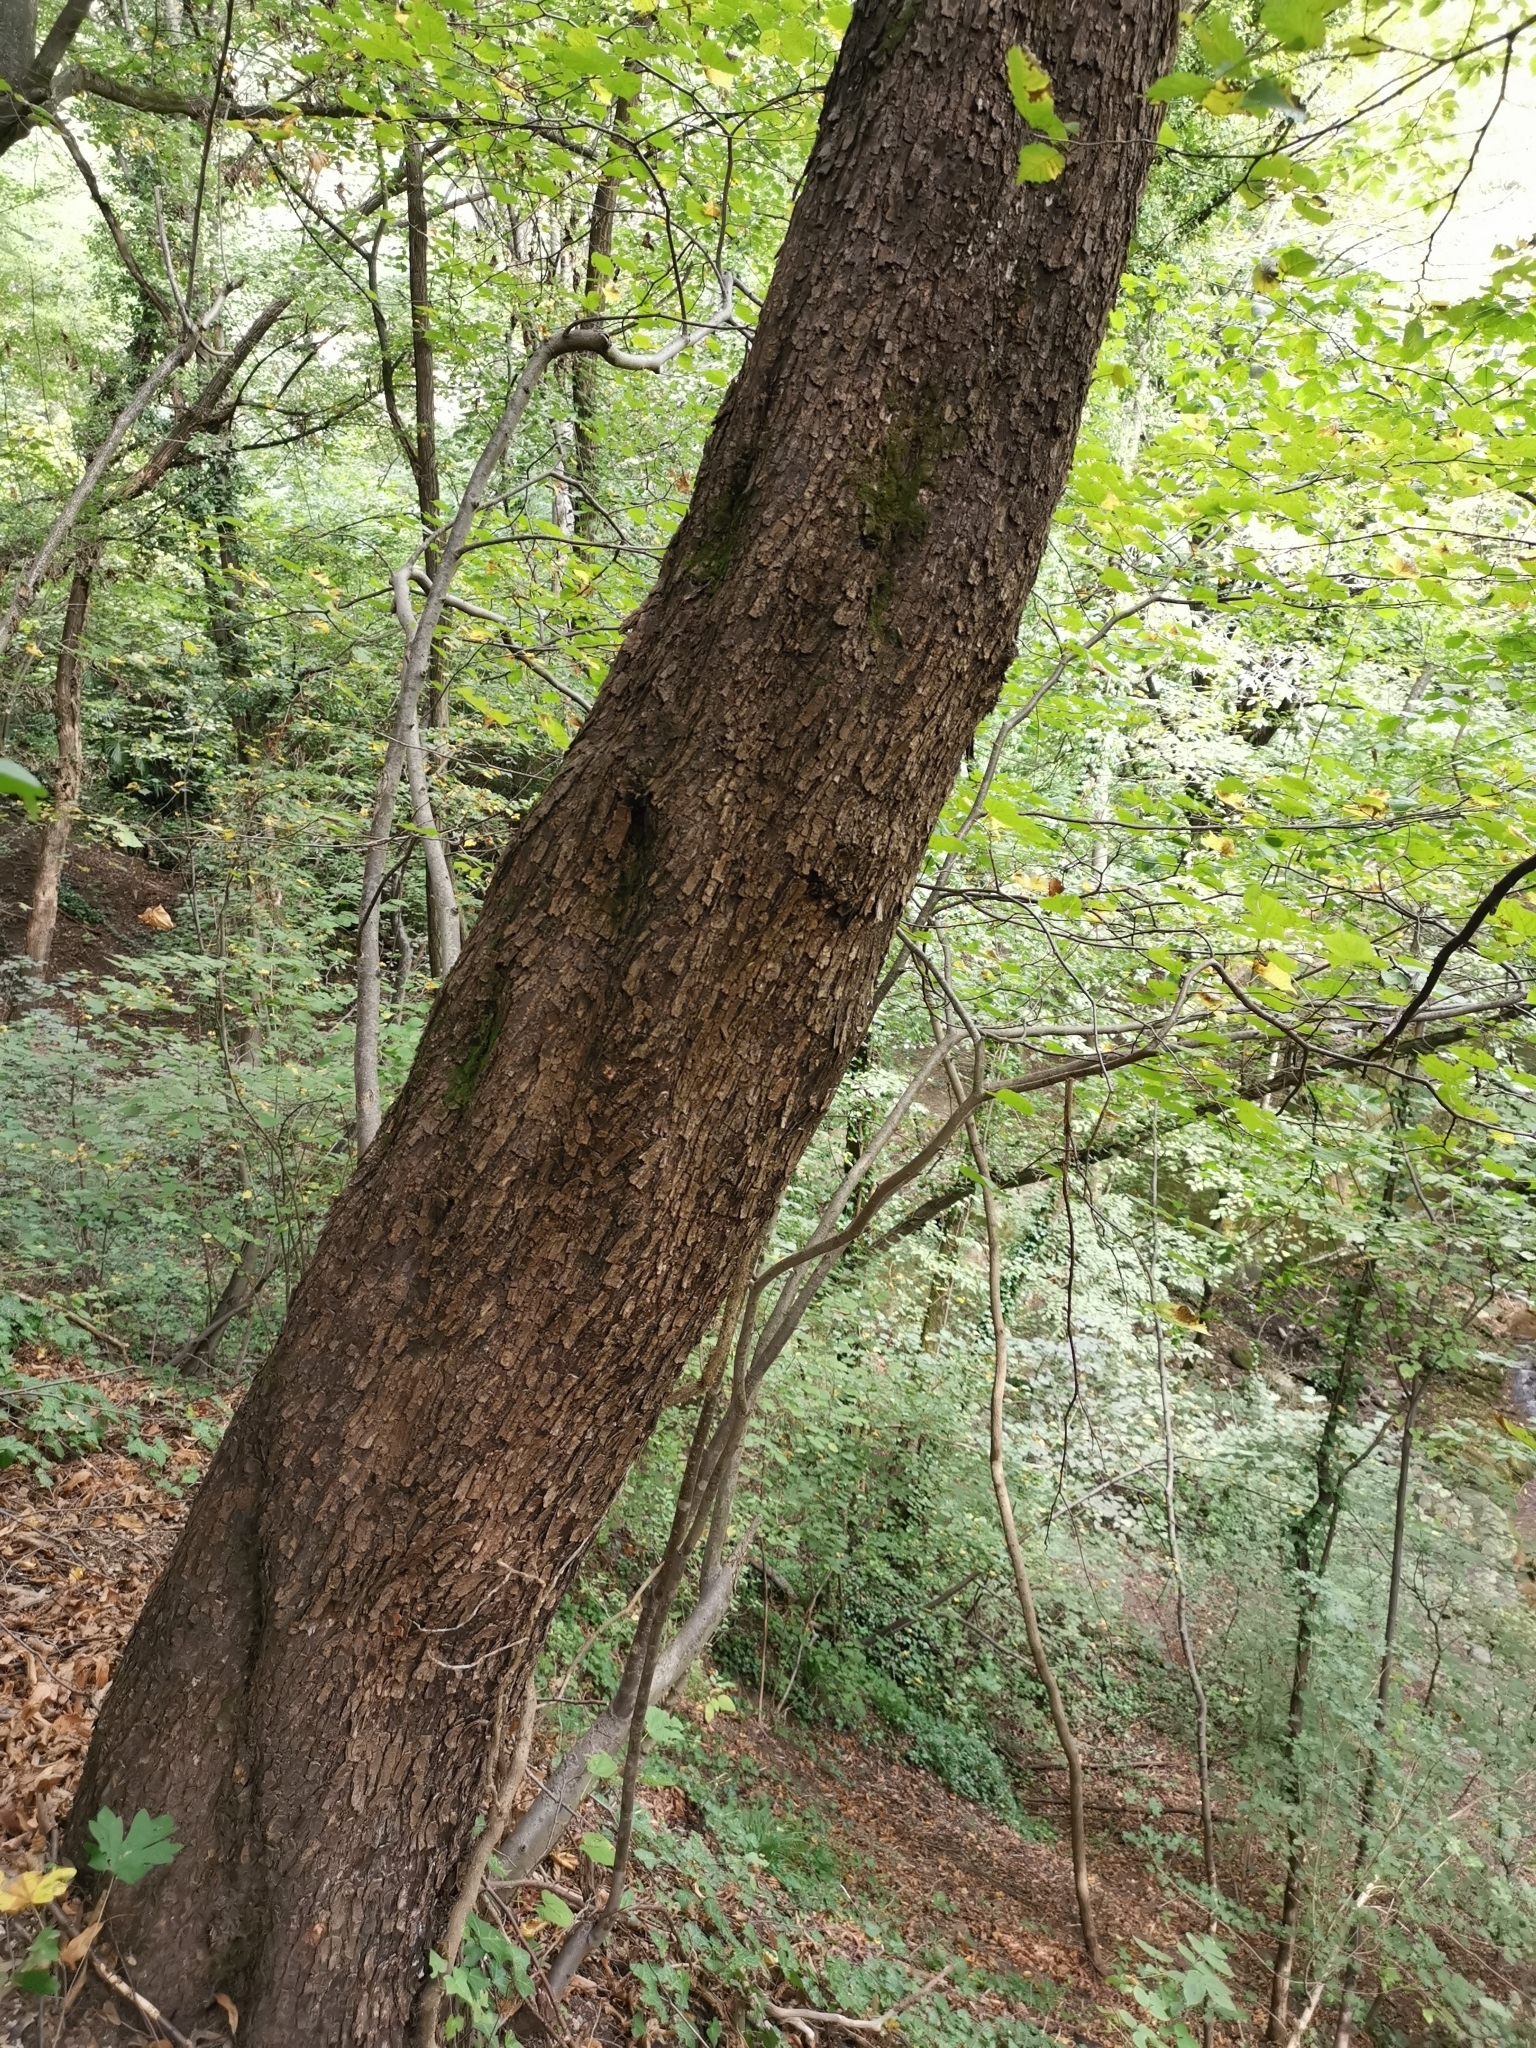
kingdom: Plantae
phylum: Tracheophyta
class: Magnoliopsida
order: Fagales
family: Betulaceae
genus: Ostrya
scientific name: Ostrya carpinifolia
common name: European hop-hornbeam
